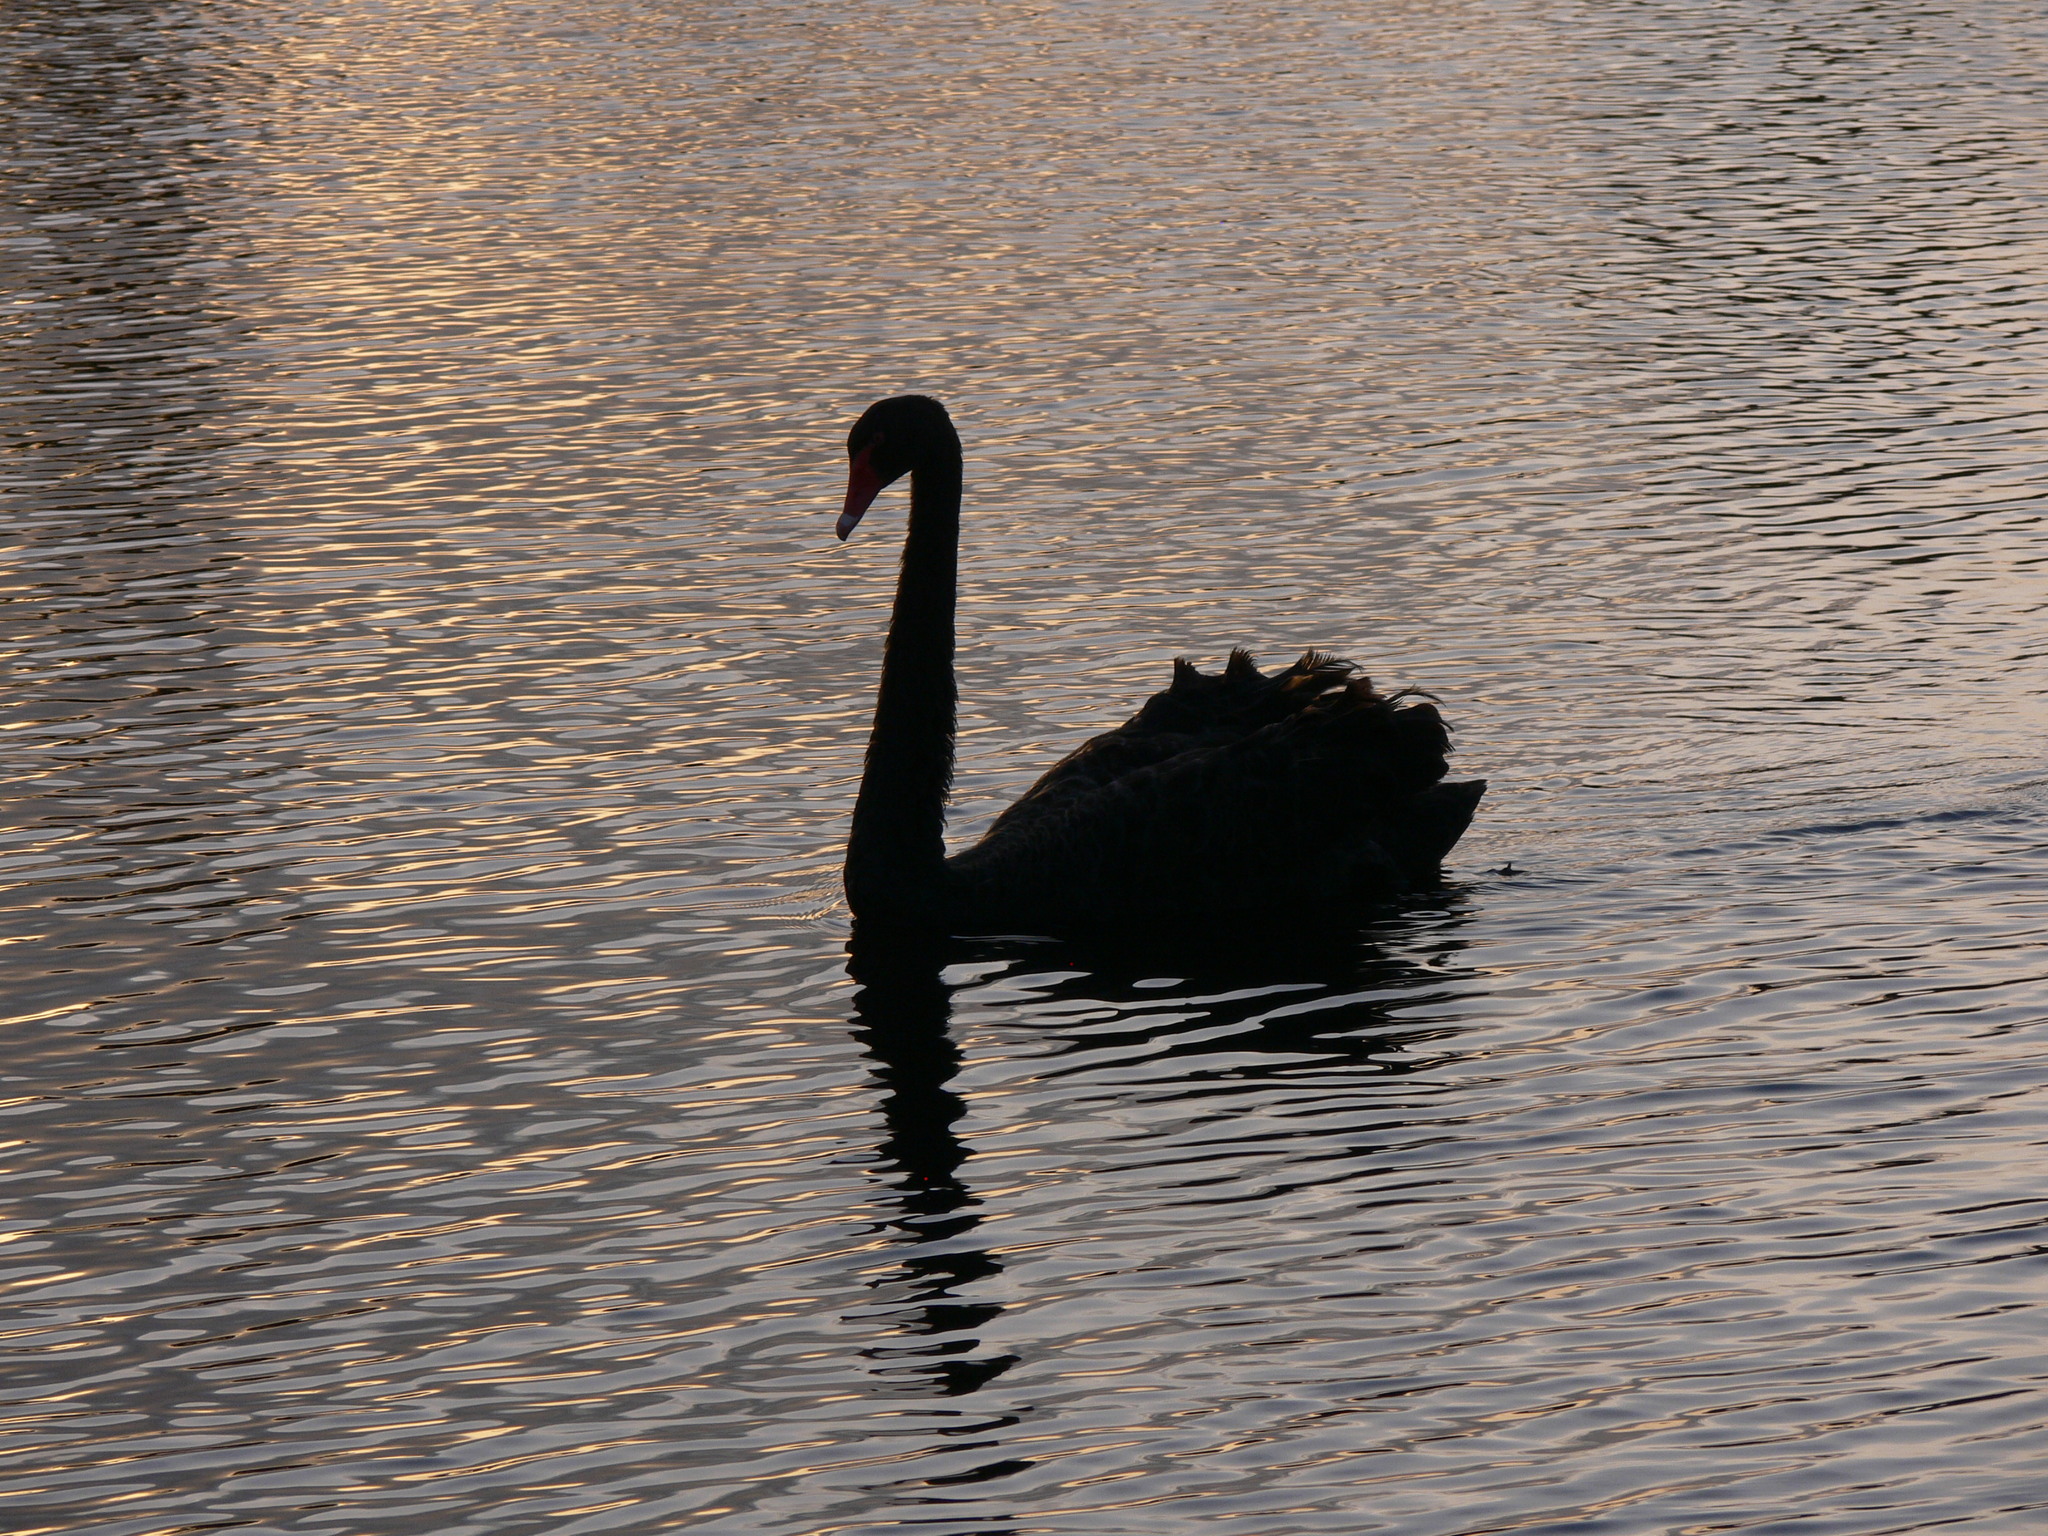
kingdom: Animalia
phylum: Chordata
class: Aves
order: Anseriformes
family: Anatidae
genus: Cygnus
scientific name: Cygnus atratus
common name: Black swan
